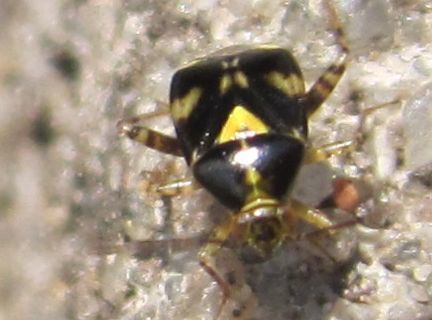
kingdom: Animalia
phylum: Arthropoda
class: Insecta
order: Hemiptera
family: Miridae
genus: Liocoris
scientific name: Liocoris tripustulatus
